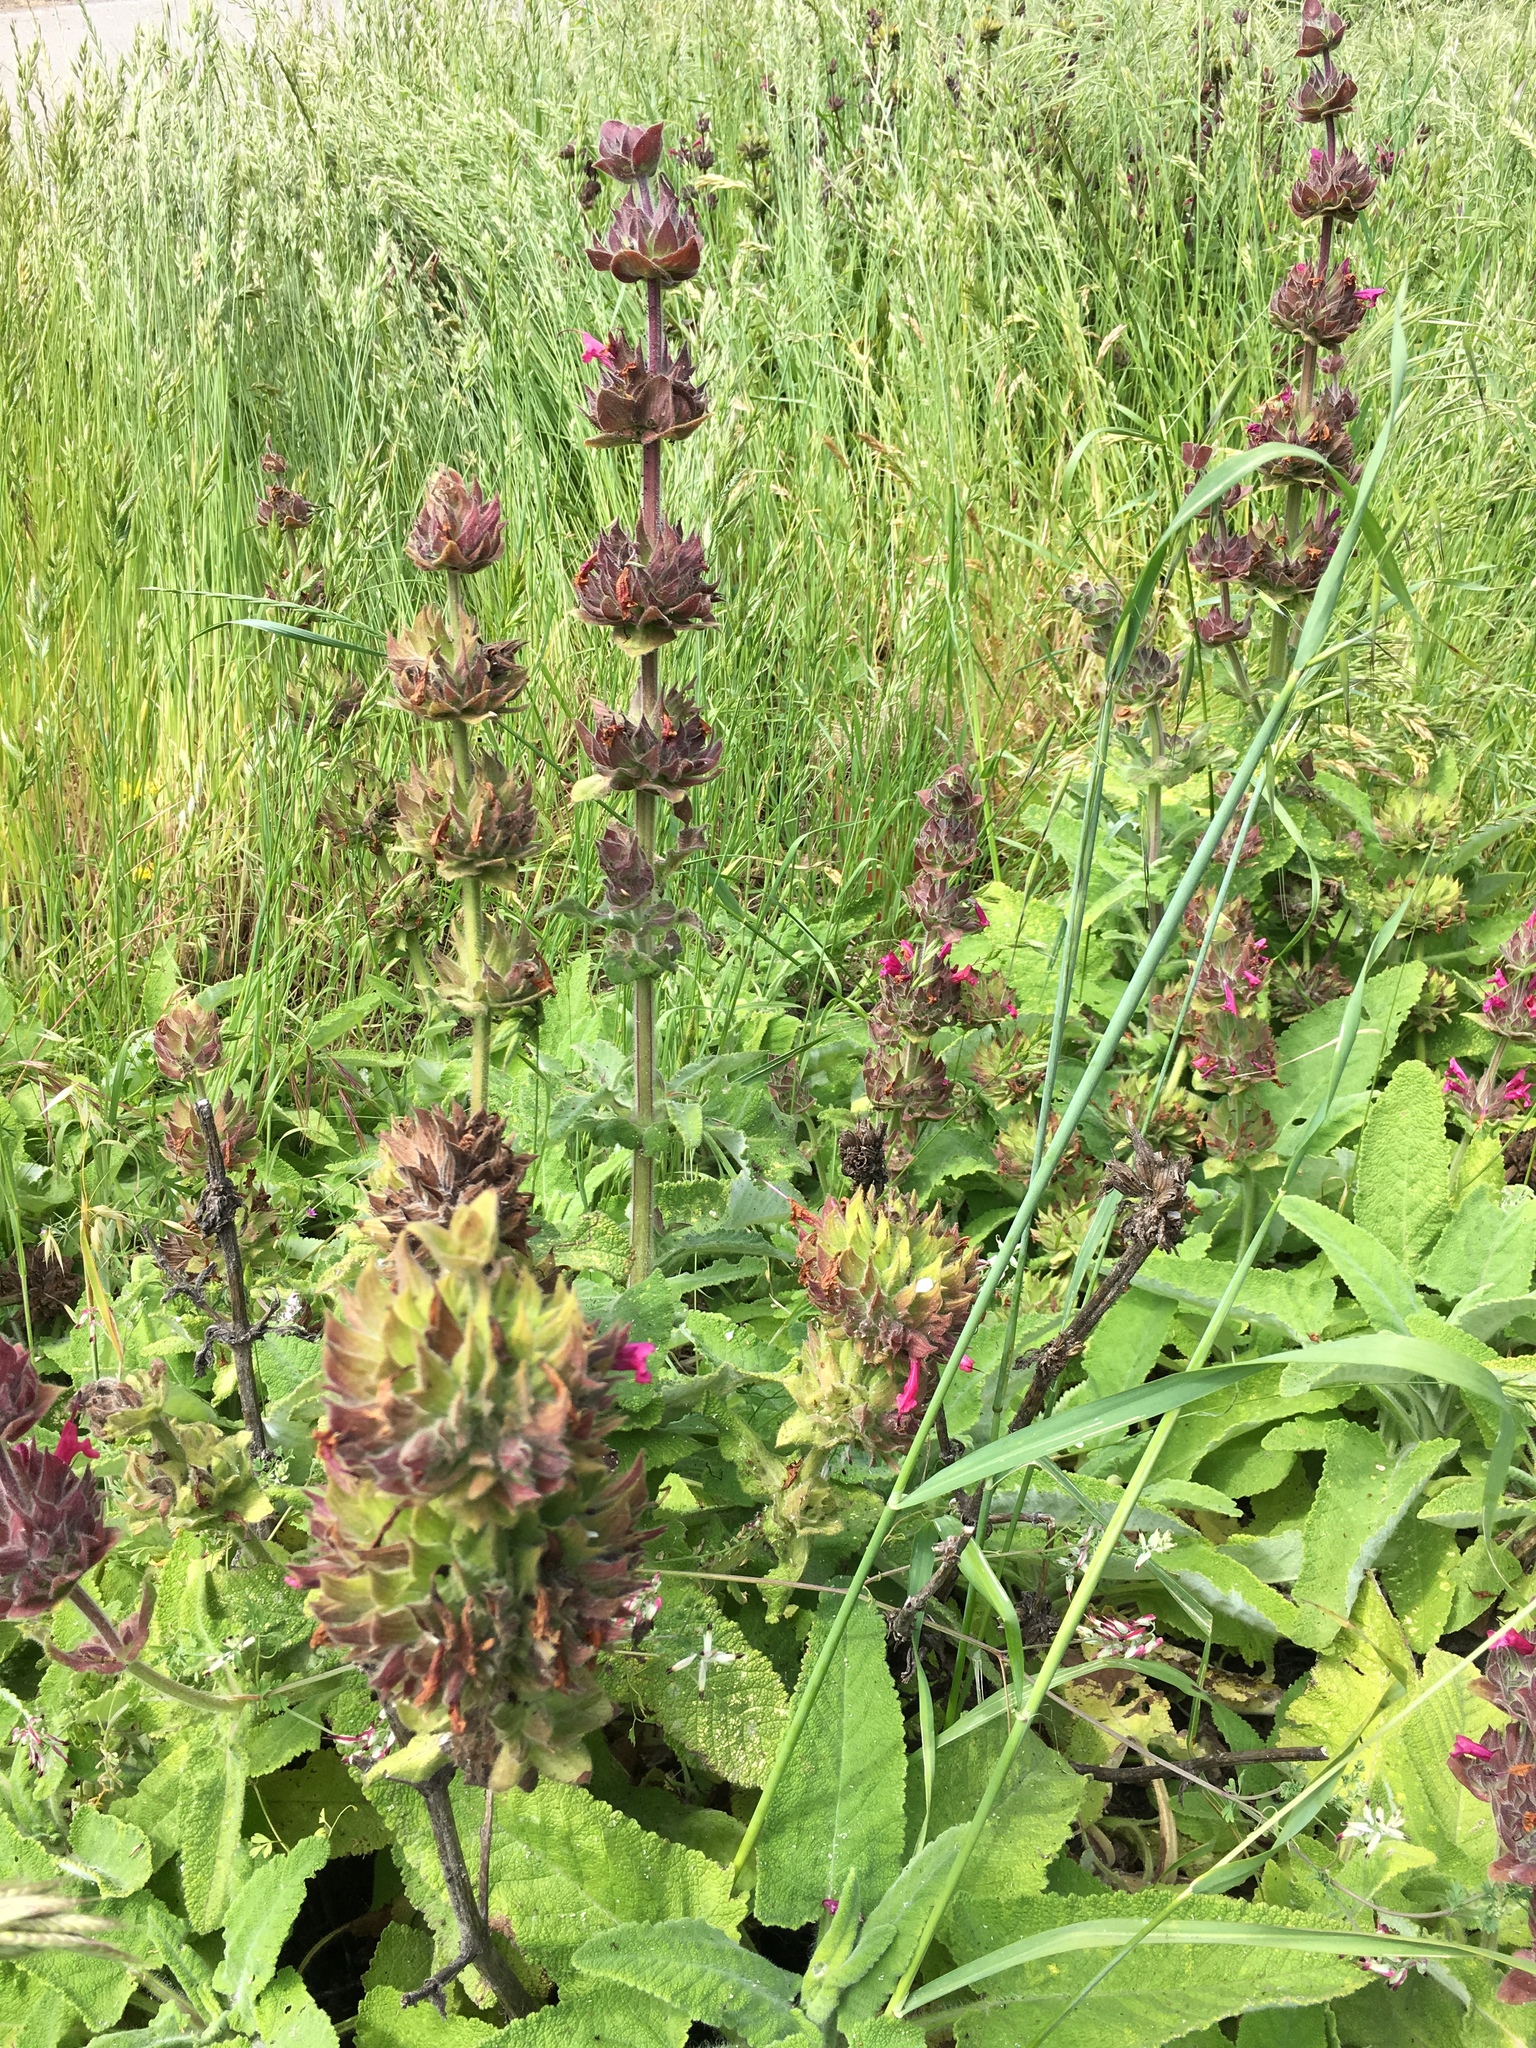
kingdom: Plantae
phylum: Tracheophyta
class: Magnoliopsida
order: Lamiales
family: Lamiaceae
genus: Salvia
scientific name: Salvia spathacea
